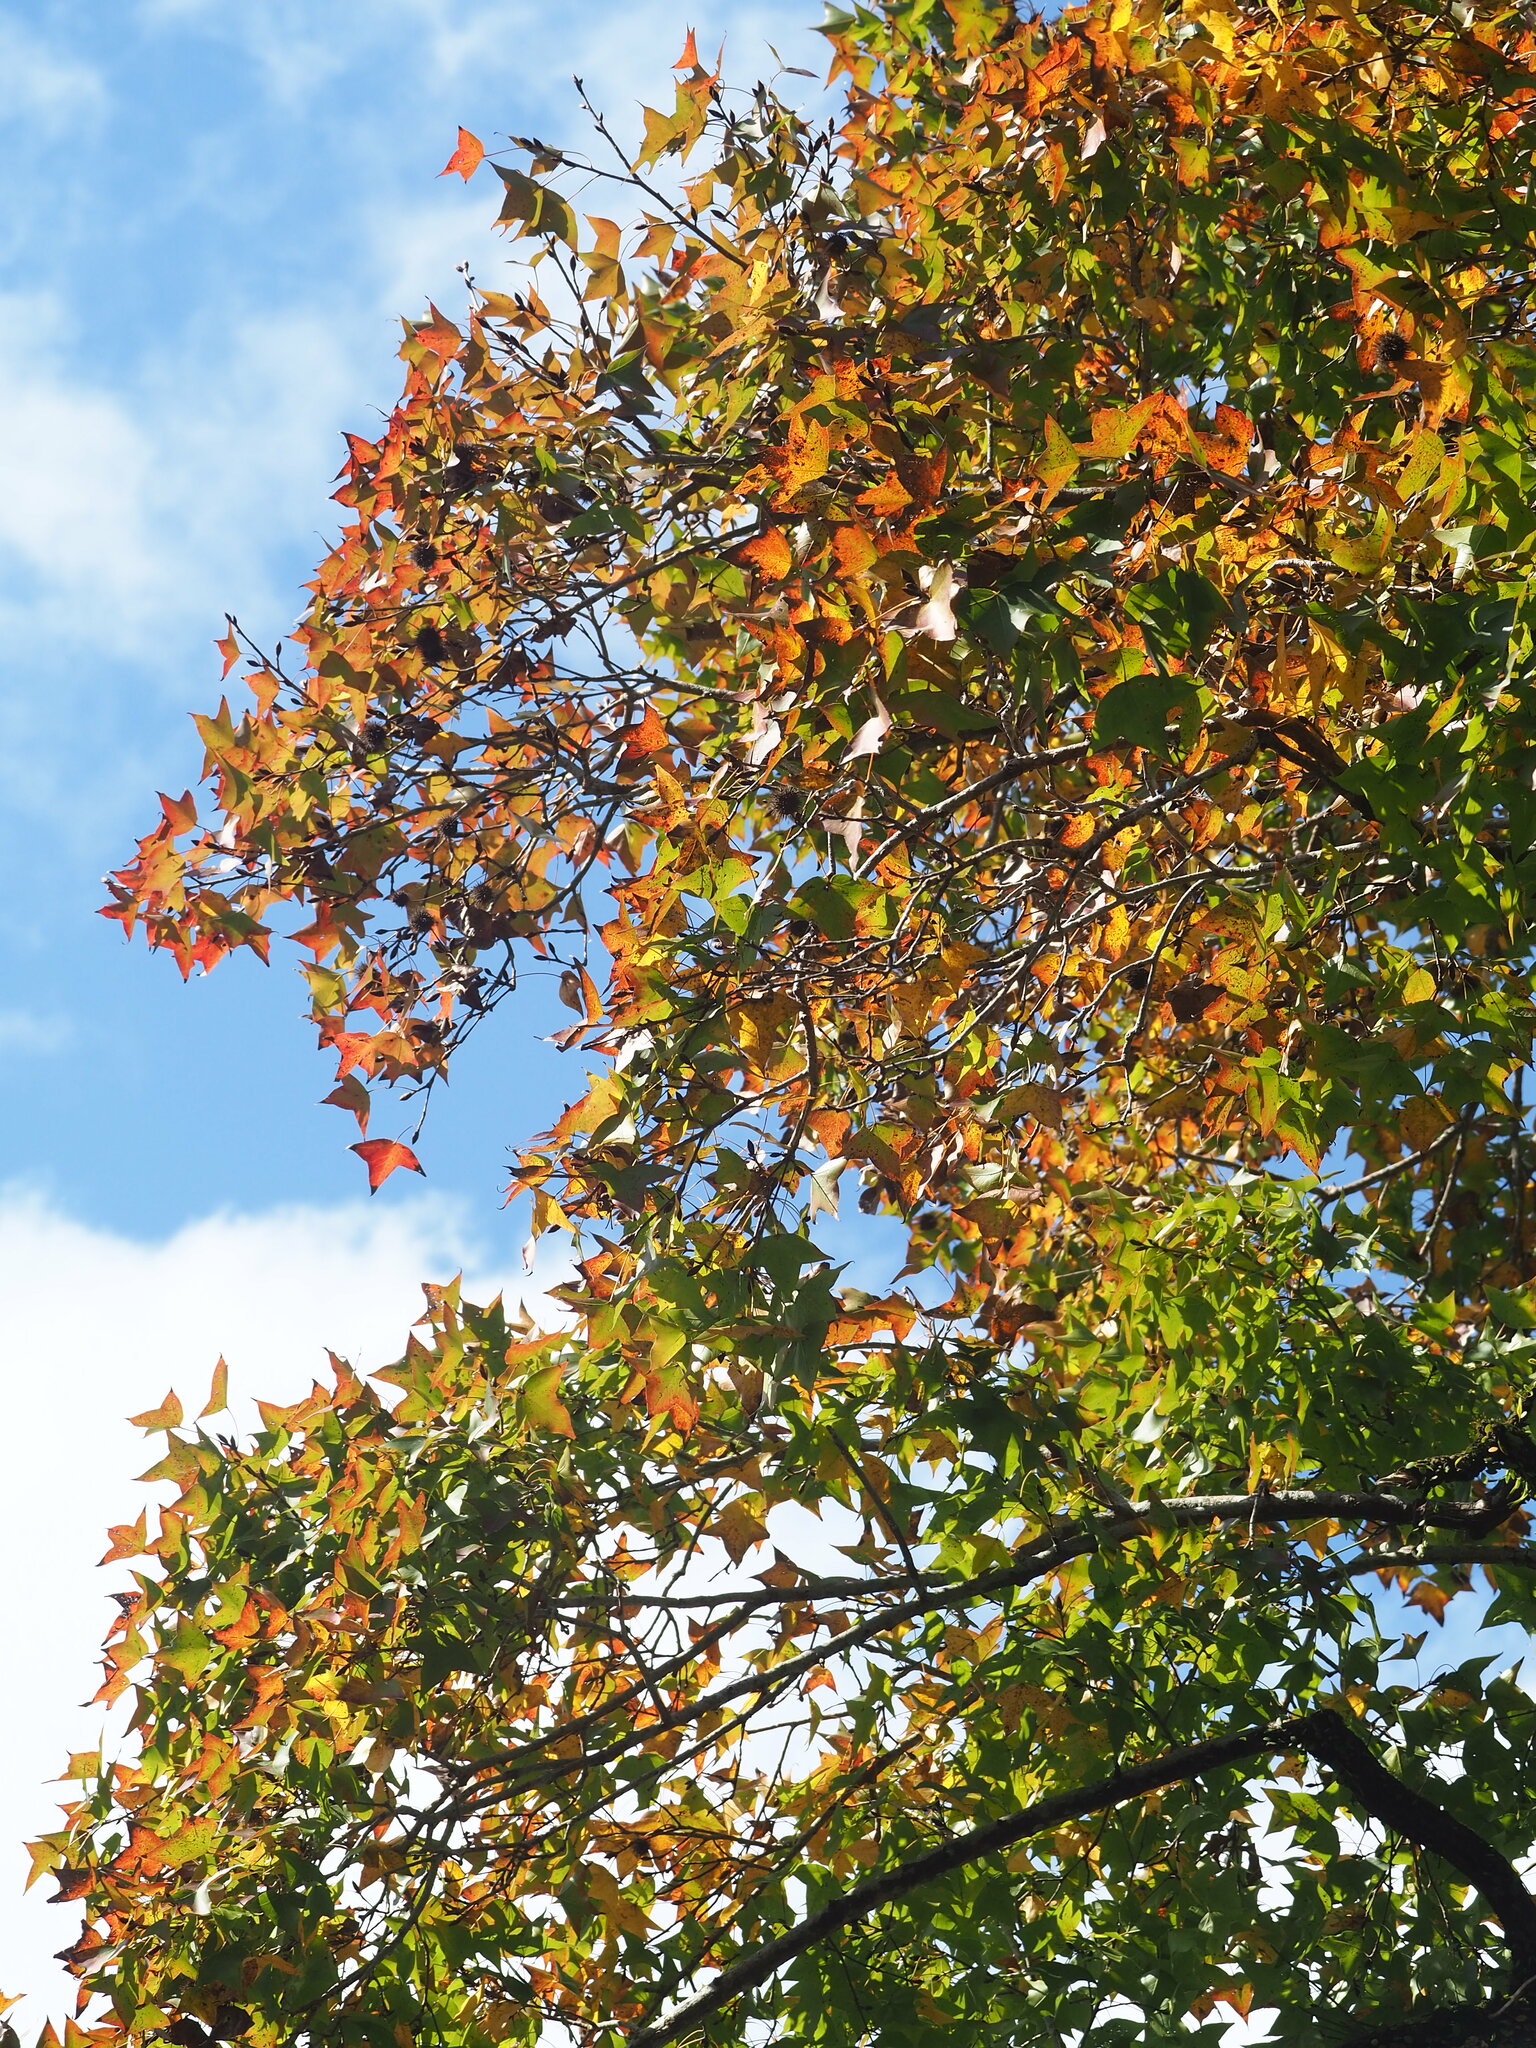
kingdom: Plantae
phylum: Tracheophyta
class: Magnoliopsida
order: Saxifragales
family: Altingiaceae
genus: Liquidambar
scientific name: Liquidambar formosana
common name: Chinese sweet gum
